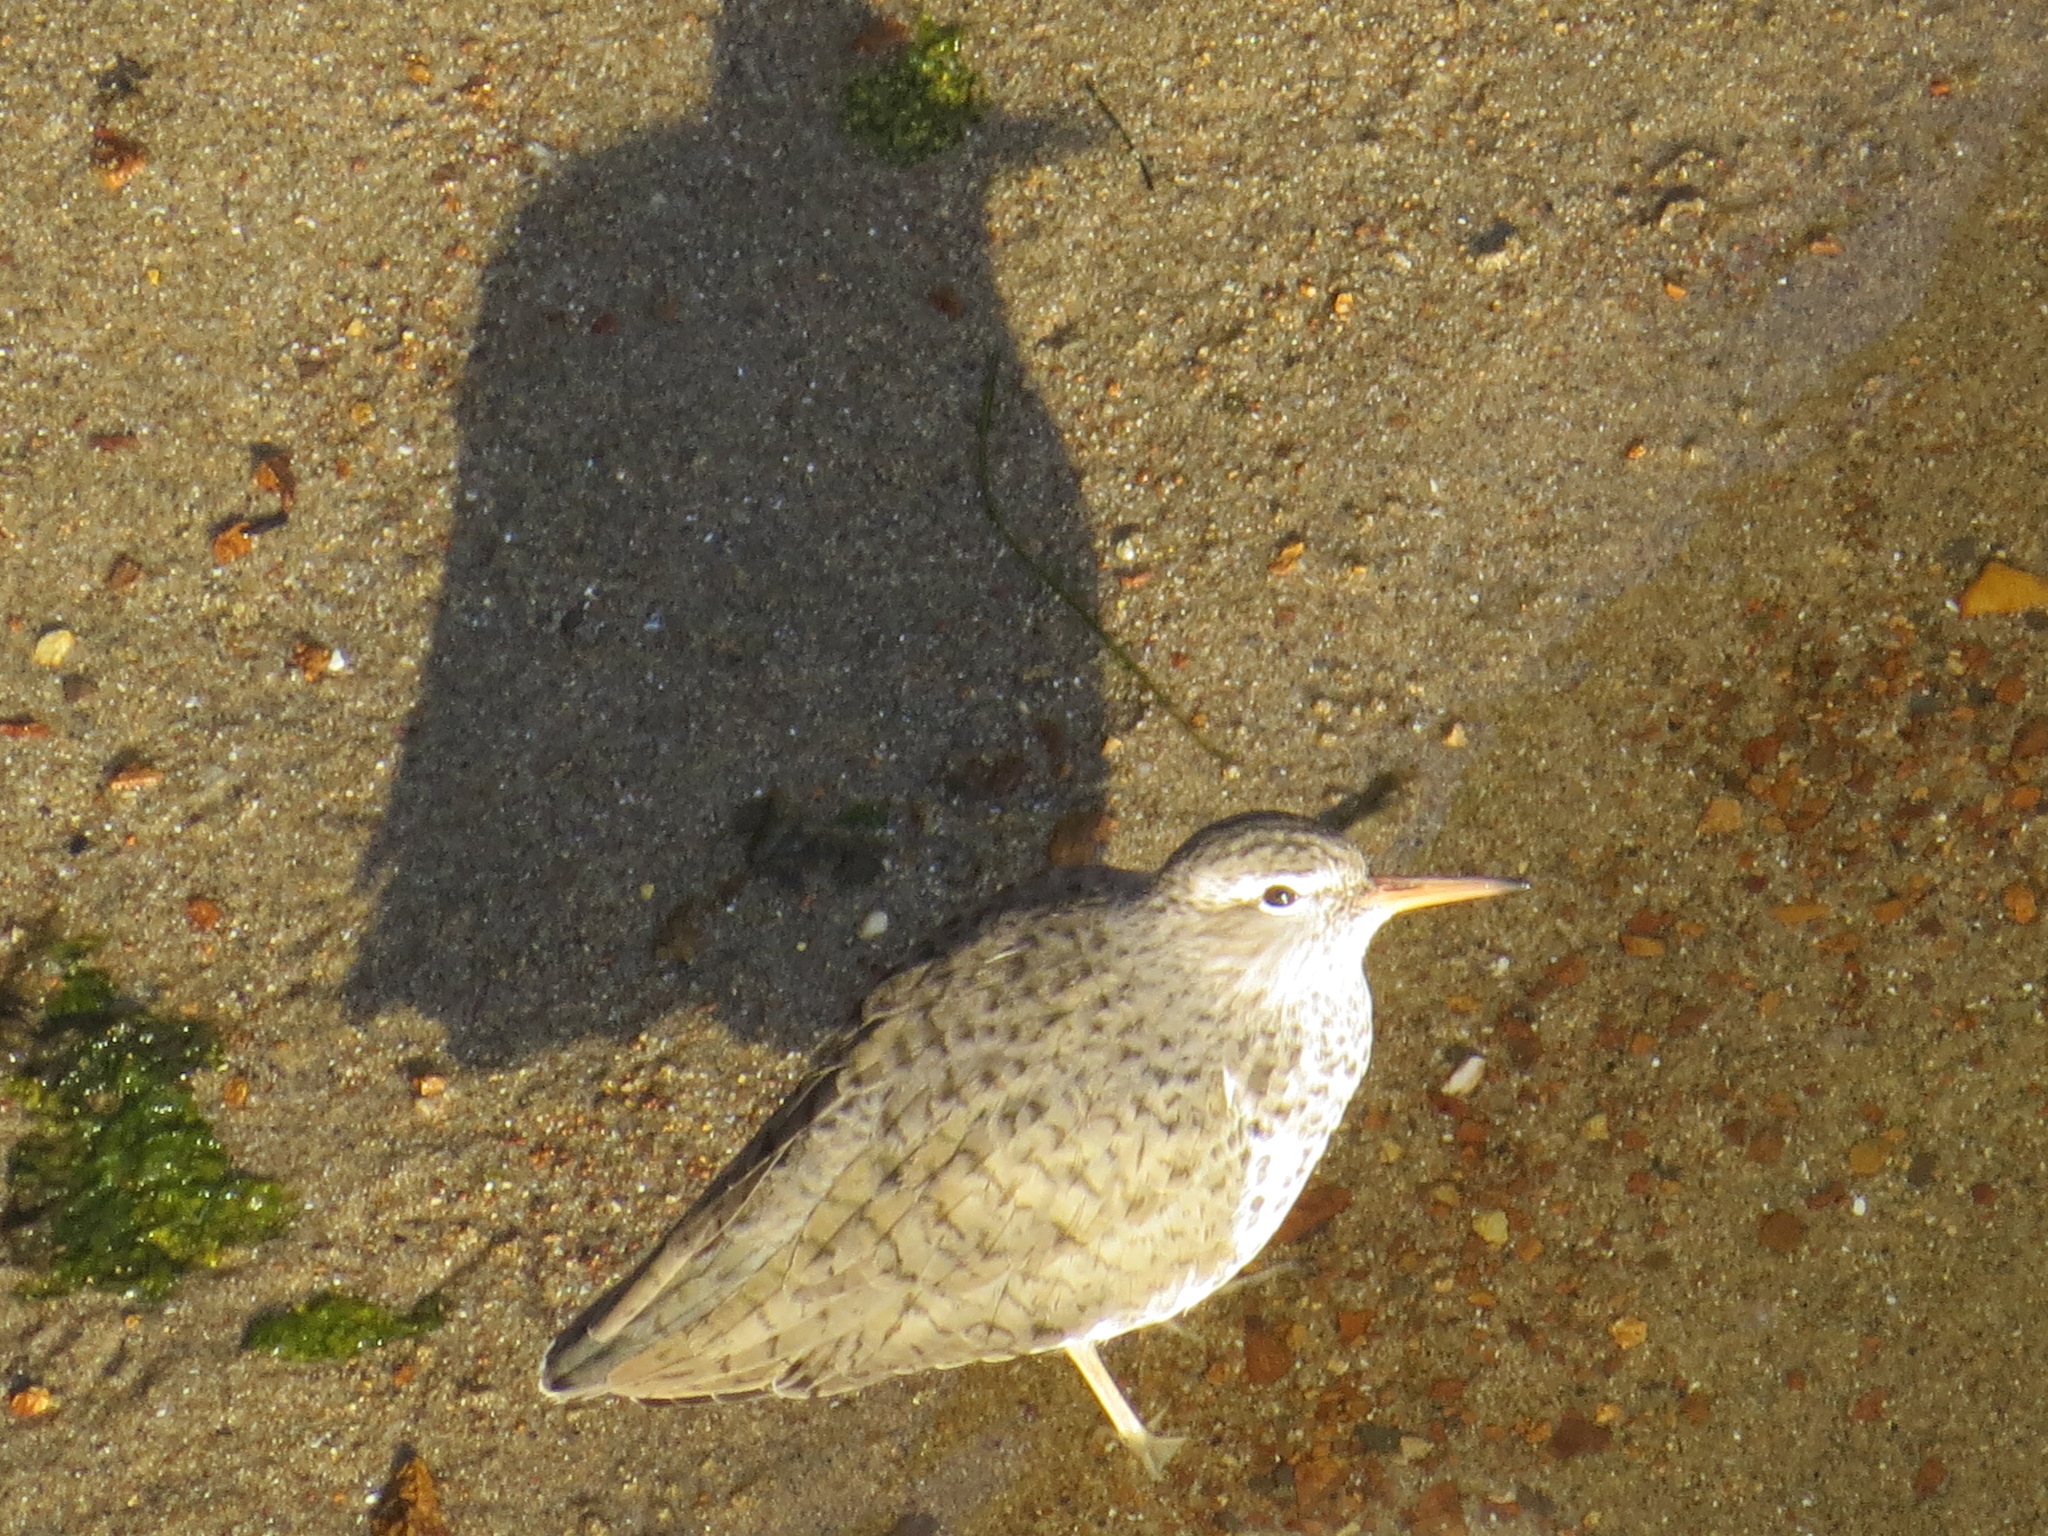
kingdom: Animalia
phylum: Chordata
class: Aves
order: Charadriiformes
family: Scolopacidae
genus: Actitis
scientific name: Actitis macularius
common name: Spotted sandpiper
